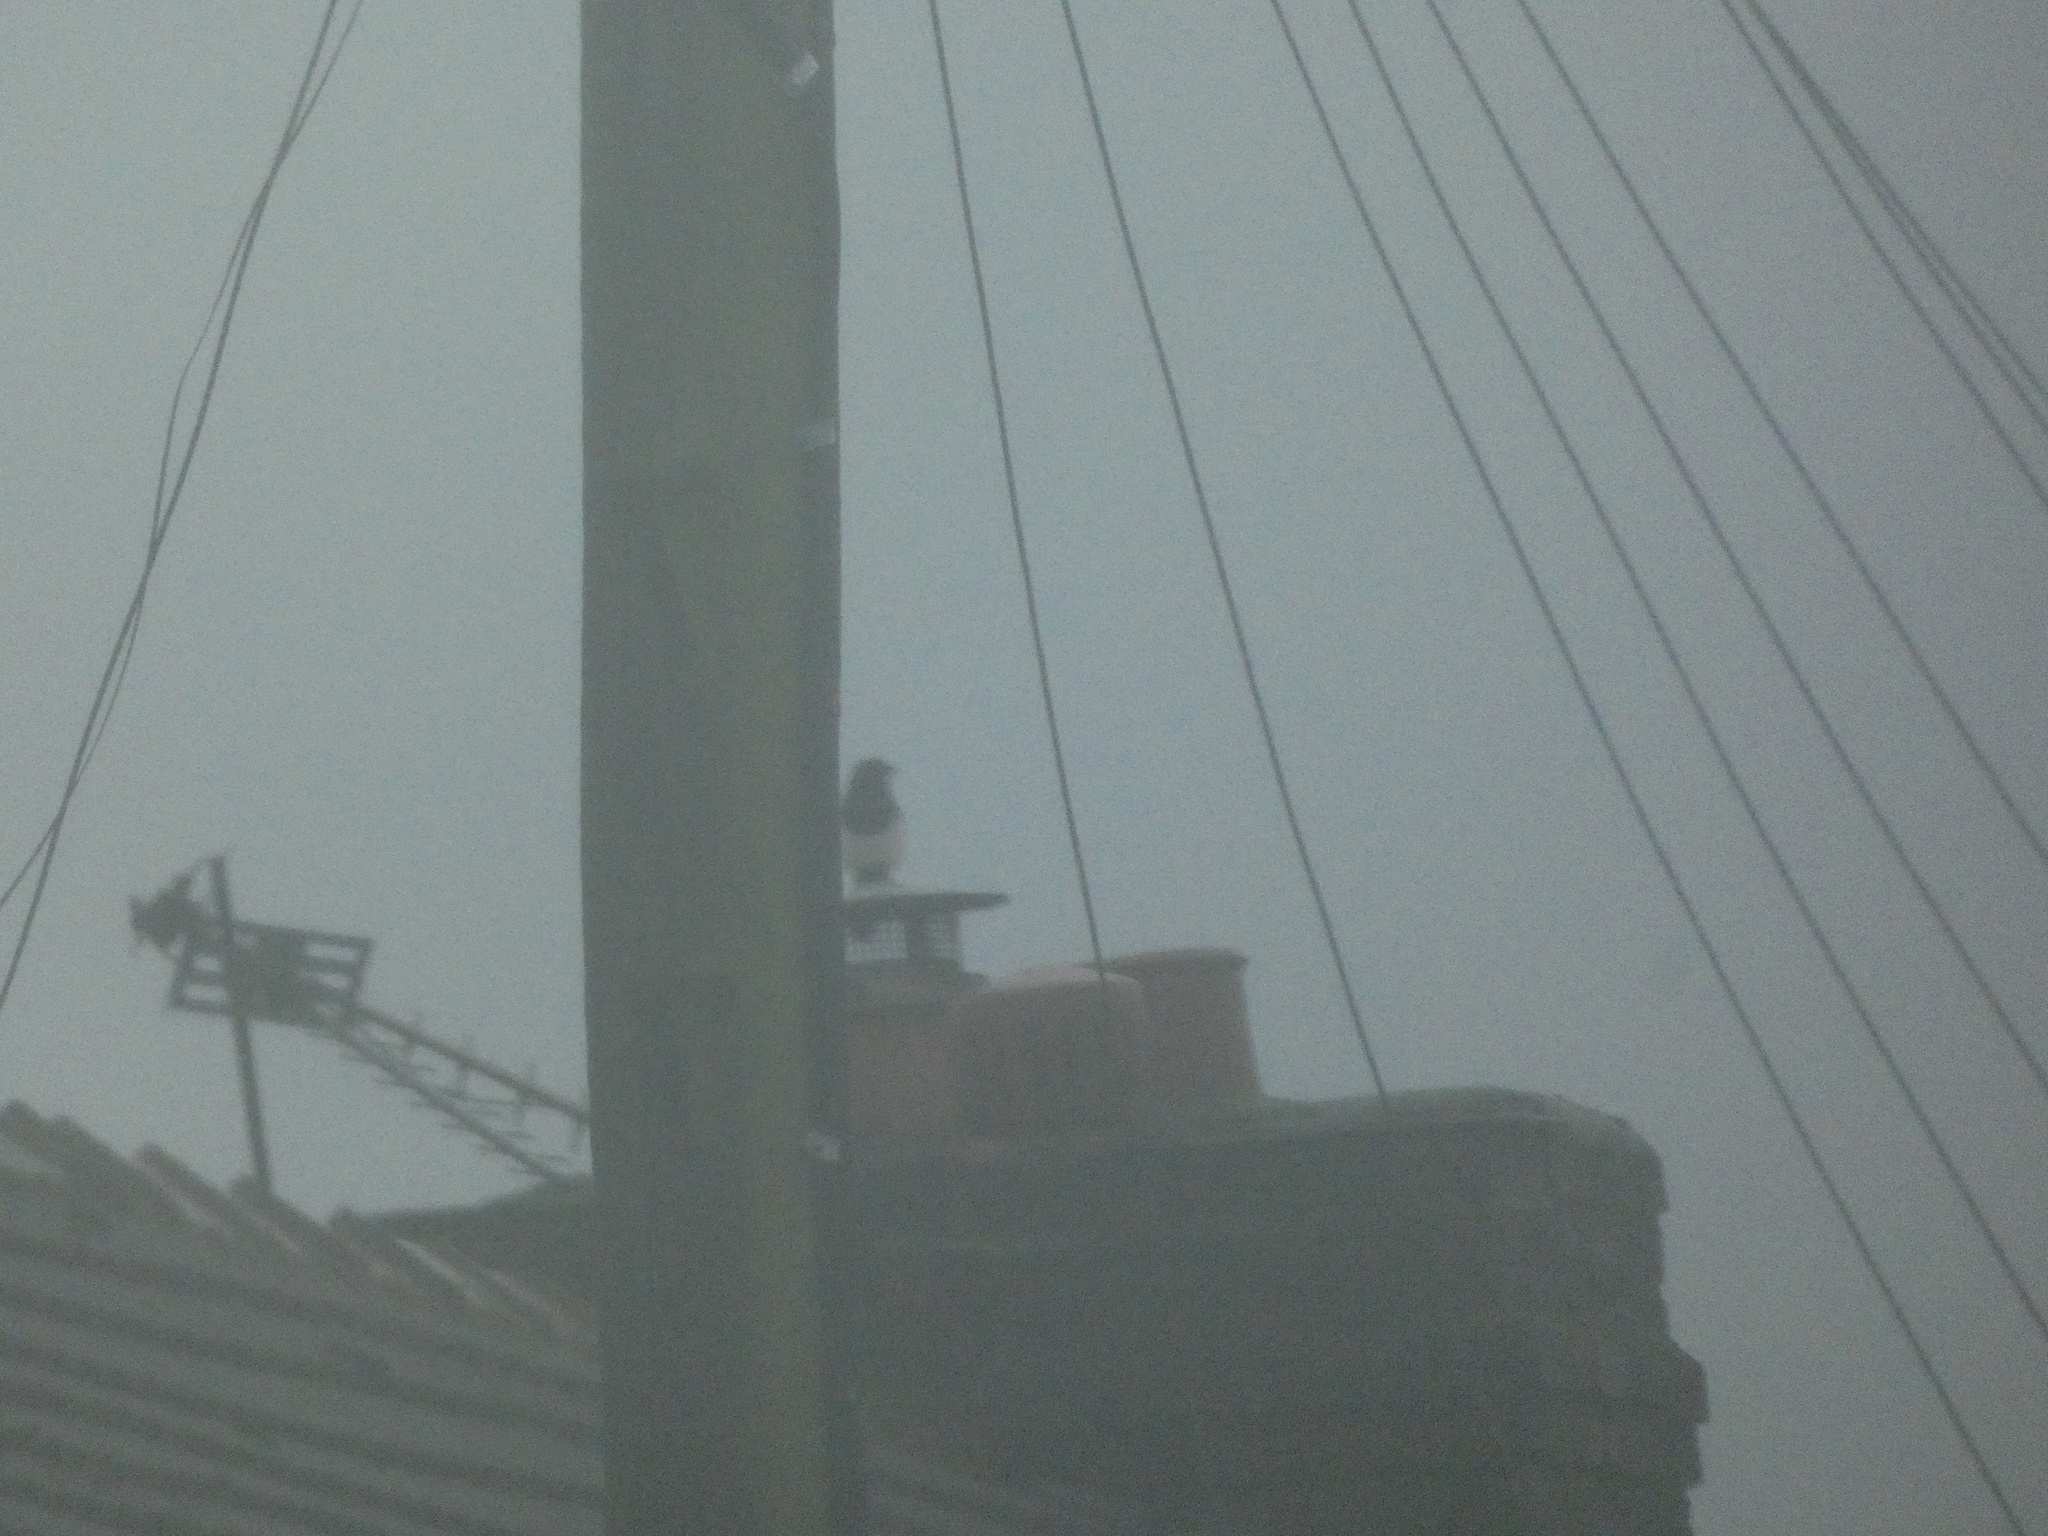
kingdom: Animalia
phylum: Chordata
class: Aves
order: Passeriformes
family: Corvidae
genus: Pica
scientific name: Pica pica
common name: Eurasian magpie
